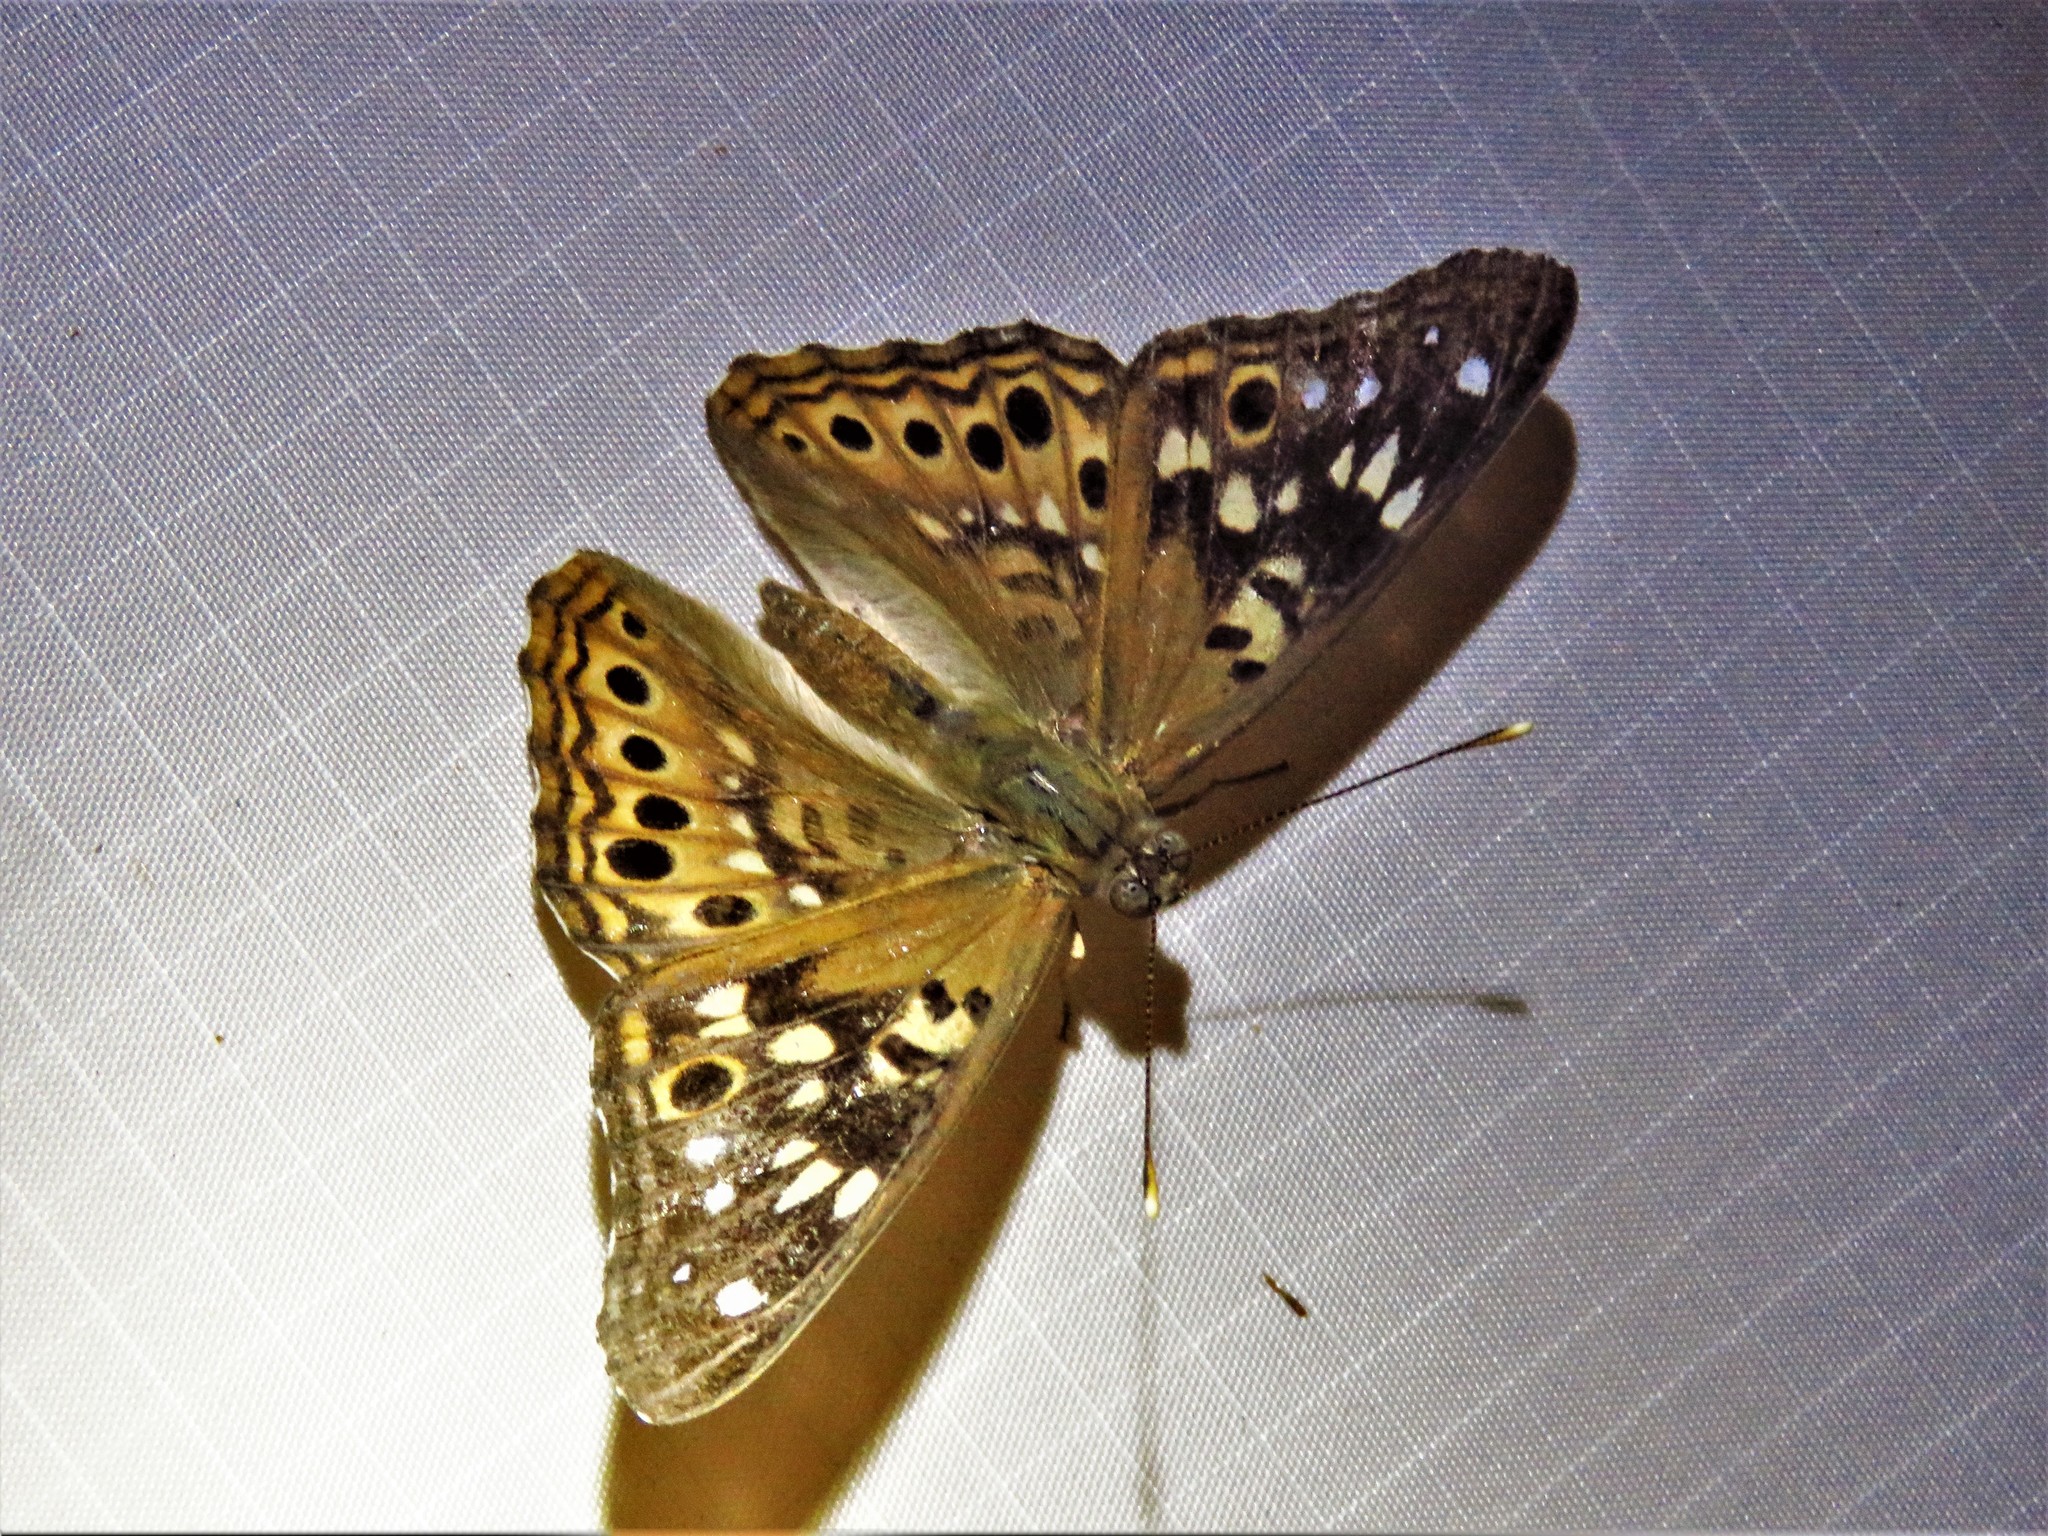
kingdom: Animalia
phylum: Arthropoda
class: Insecta
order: Lepidoptera
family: Nymphalidae
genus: Asterocampa
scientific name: Asterocampa celtis
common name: Hackberry emperor
